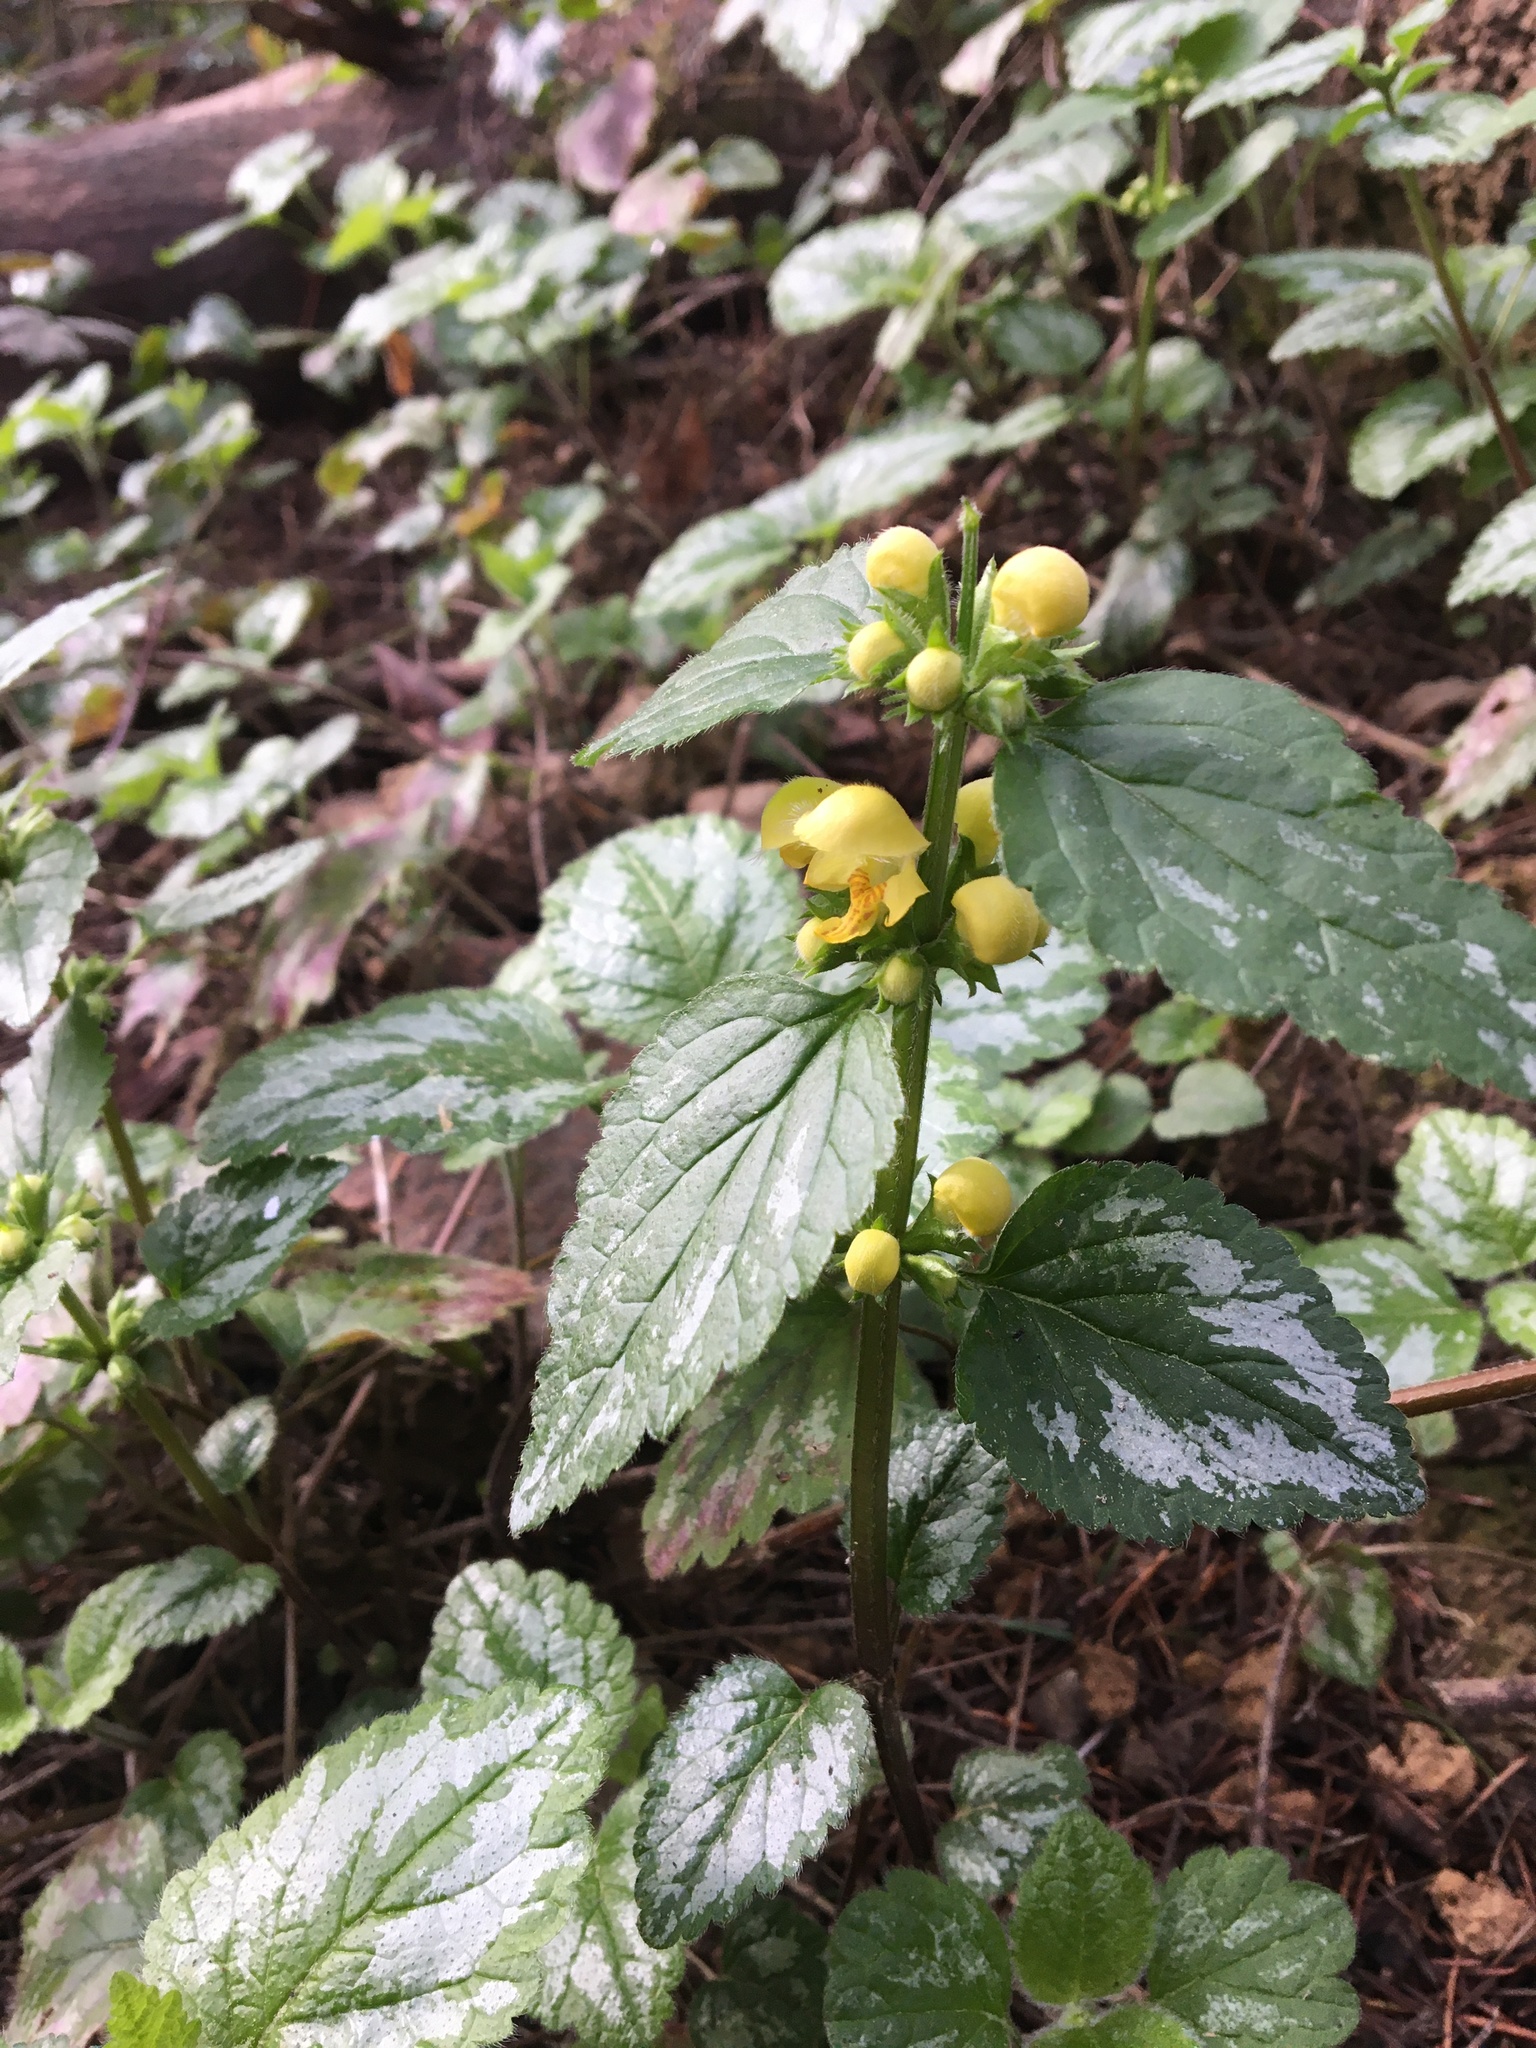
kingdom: Plantae
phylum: Tracheophyta
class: Magnoliopsida
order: Lamiales
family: Lamiaceae
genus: Lamium
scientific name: Lamium galeobdolon
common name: Yellow archangel
